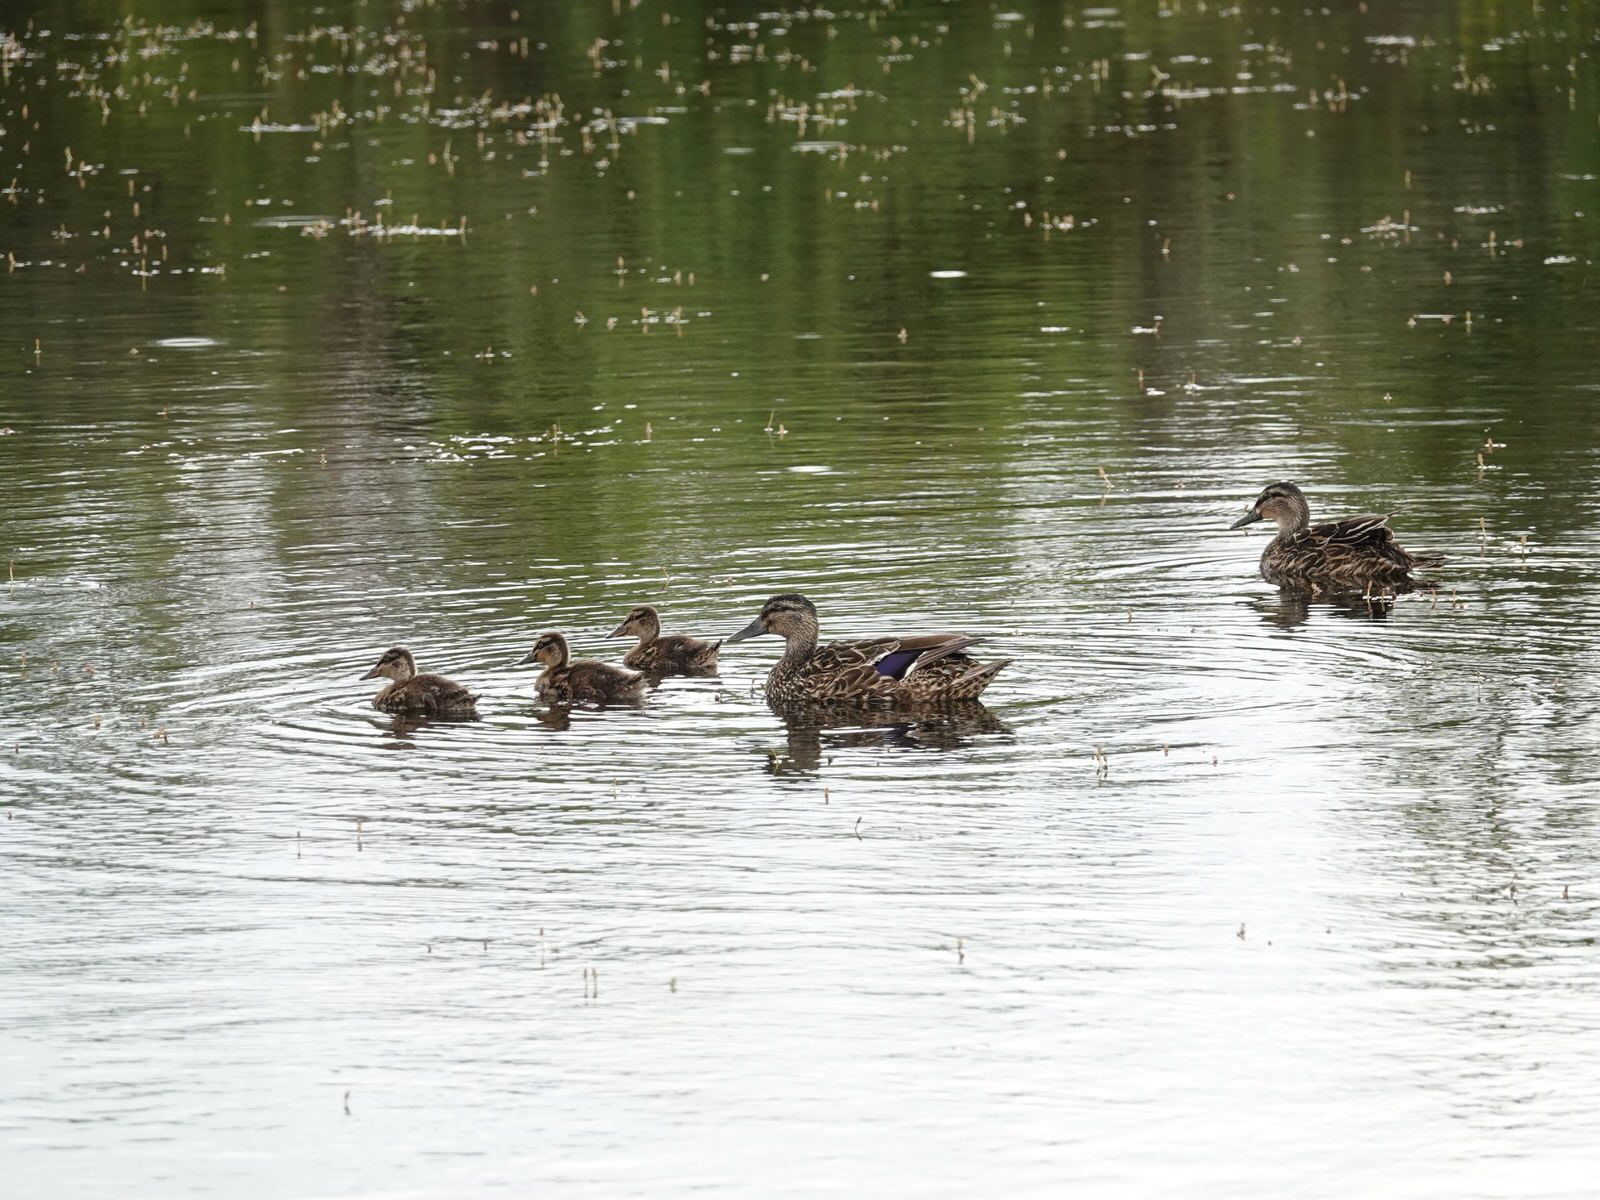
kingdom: Animalia
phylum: Chordata
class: Aves
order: Anseriformes
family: Anatidae
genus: Anas
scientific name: Anas
